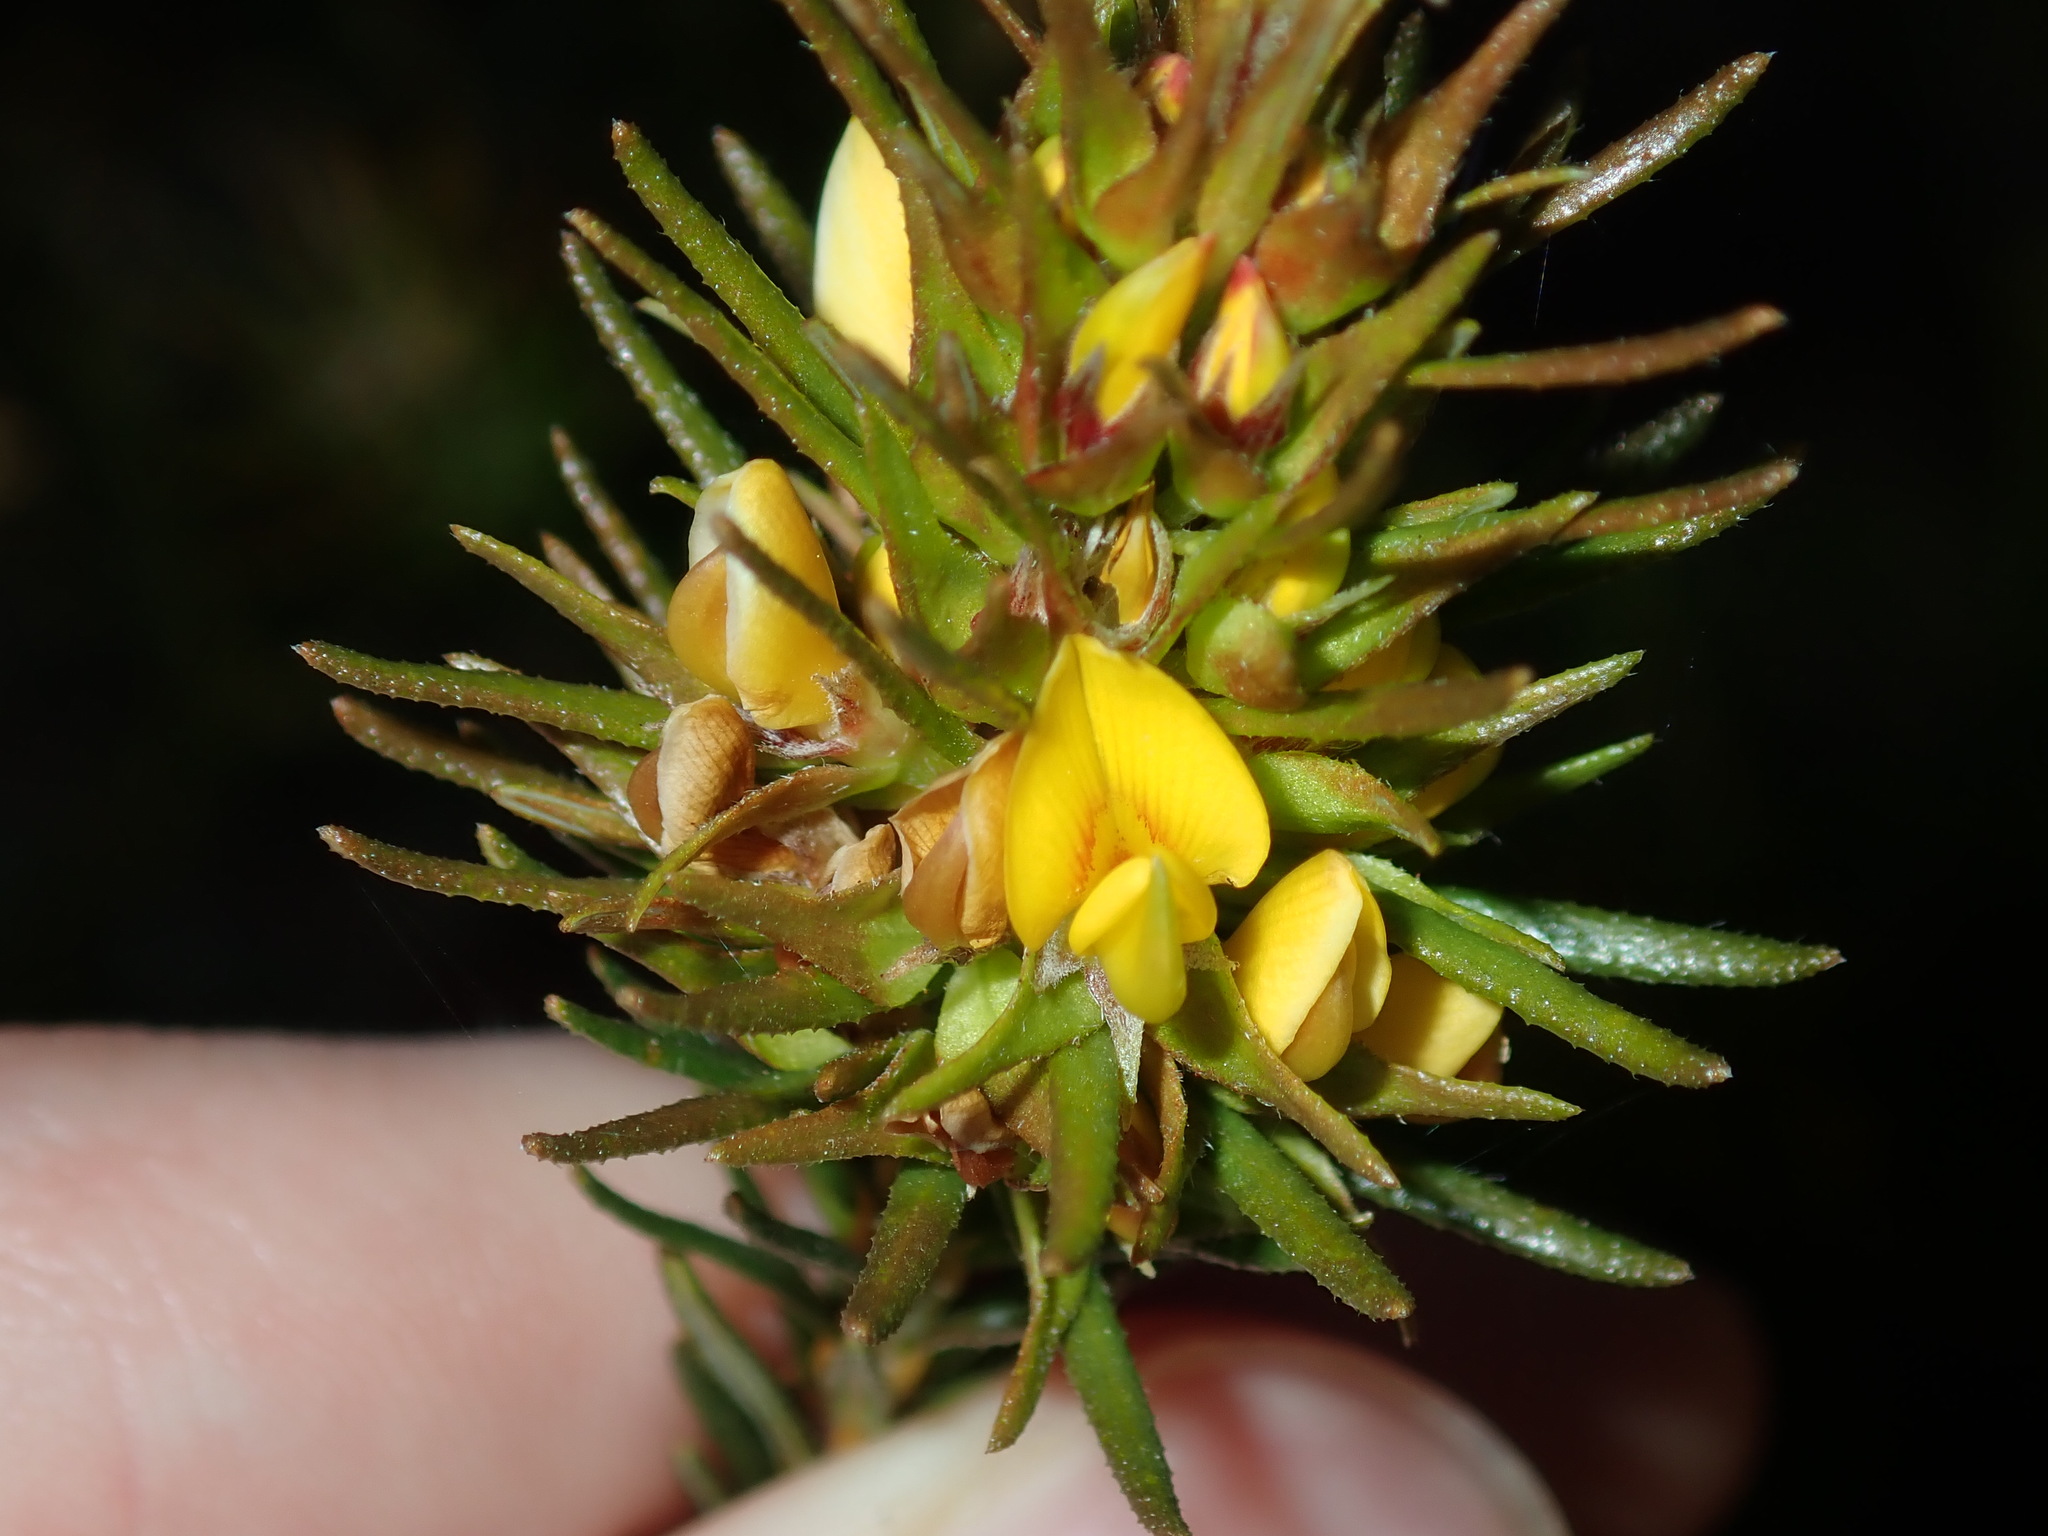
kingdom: Plantae
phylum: Tracheophyta
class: Magnoliopsida
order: Fabales
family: Fabaceae
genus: Phyllota
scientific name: Phyllota phylicoides
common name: Heath phyllota
